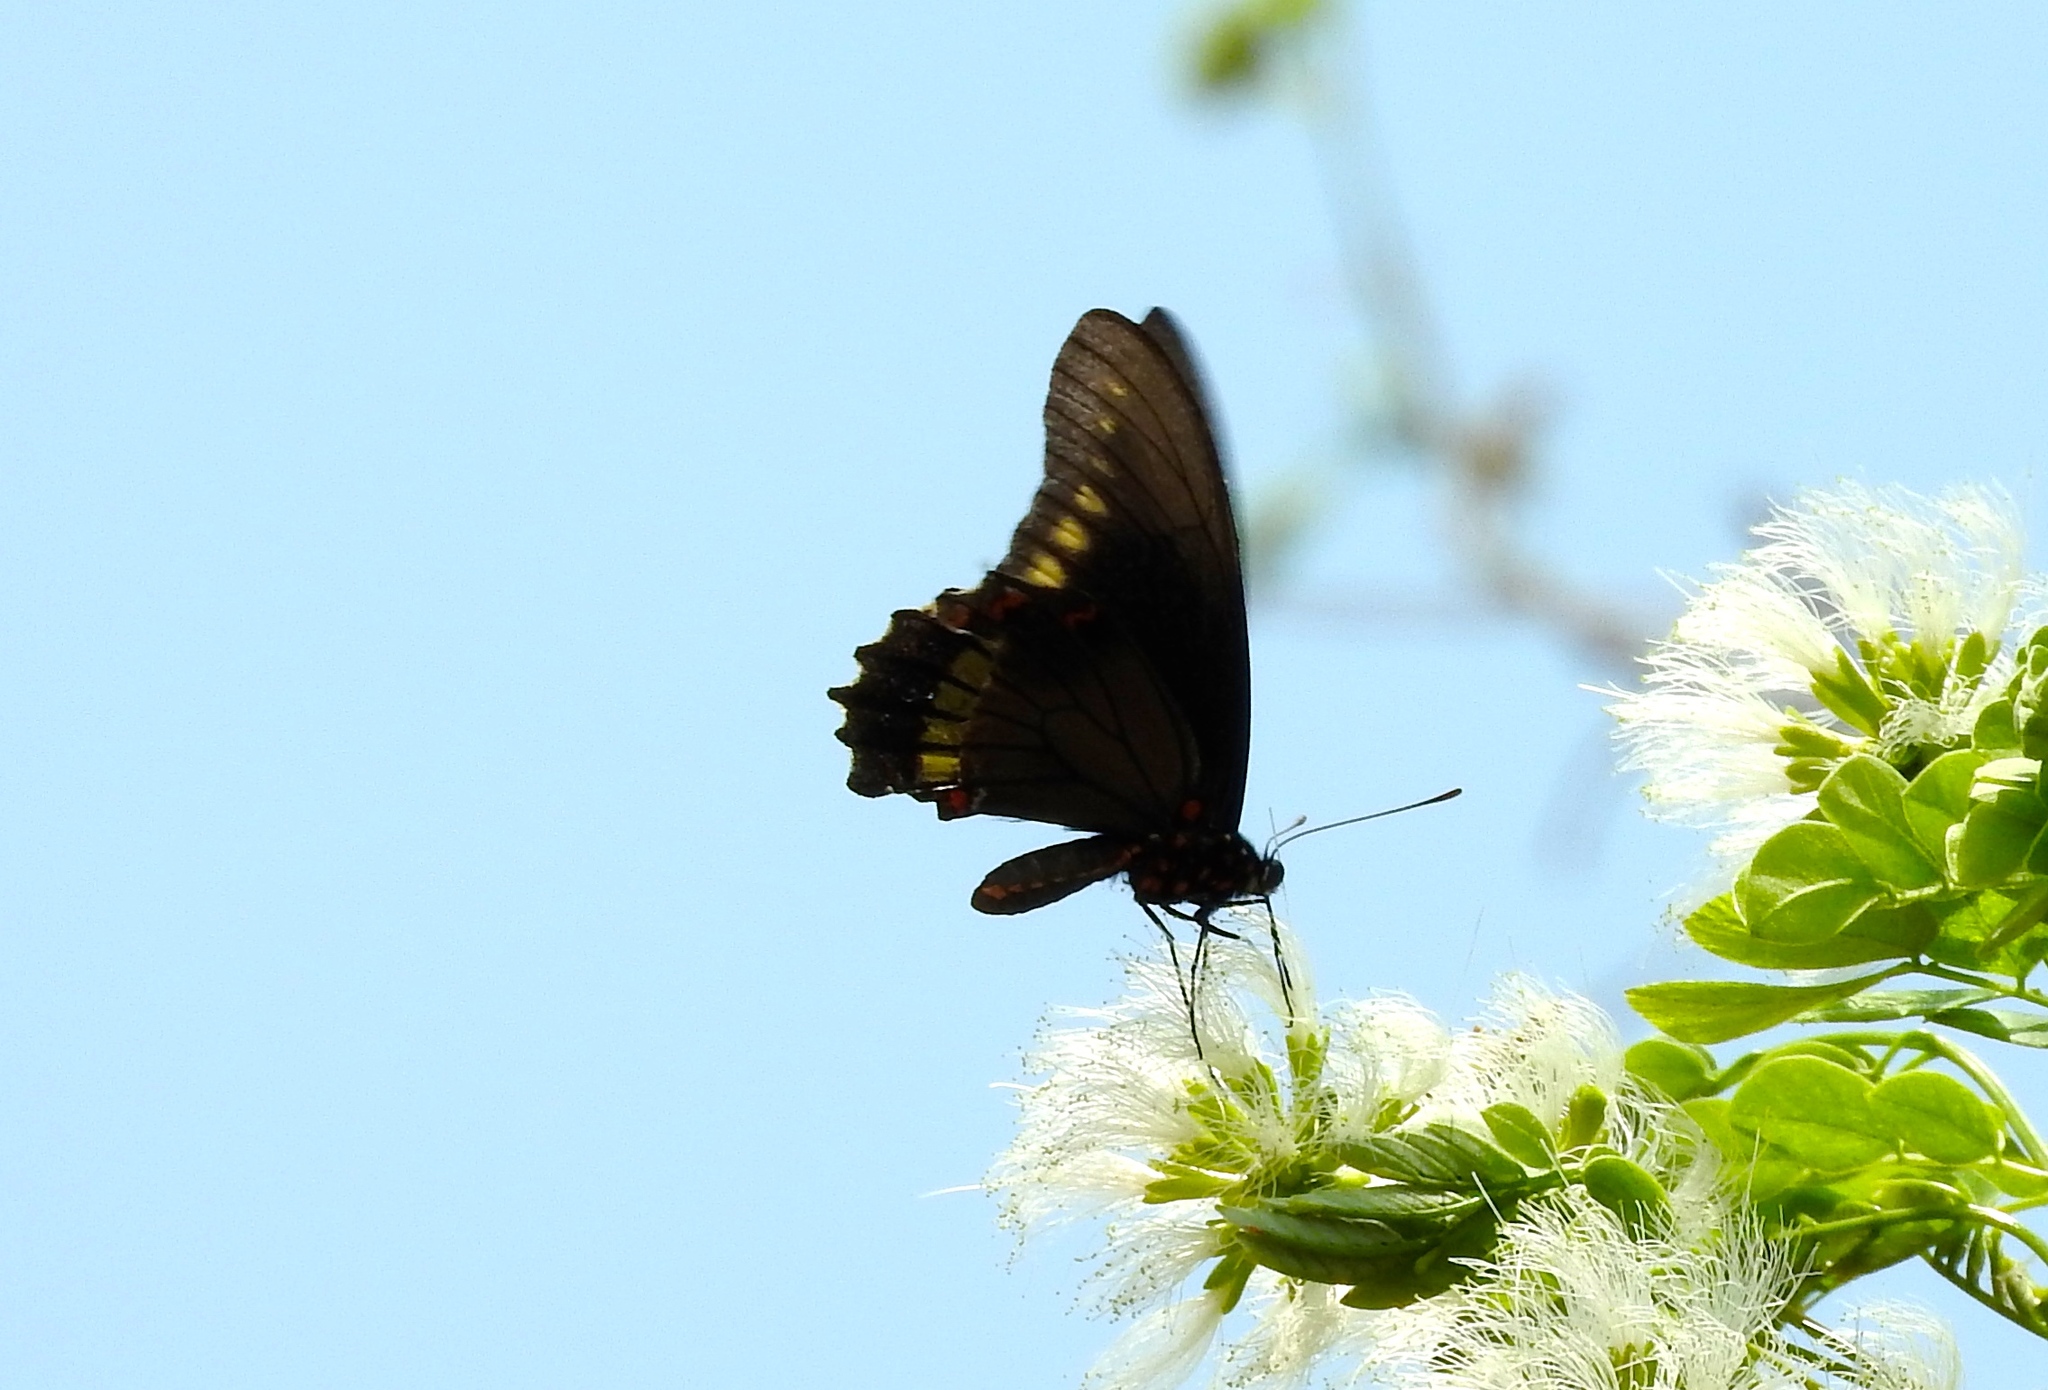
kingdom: Animalia
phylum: Arthropoda
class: Insecta
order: Lepidoptera
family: Papilionidae
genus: Battus
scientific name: Battus polydamas
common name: Polydamas swallowtail
